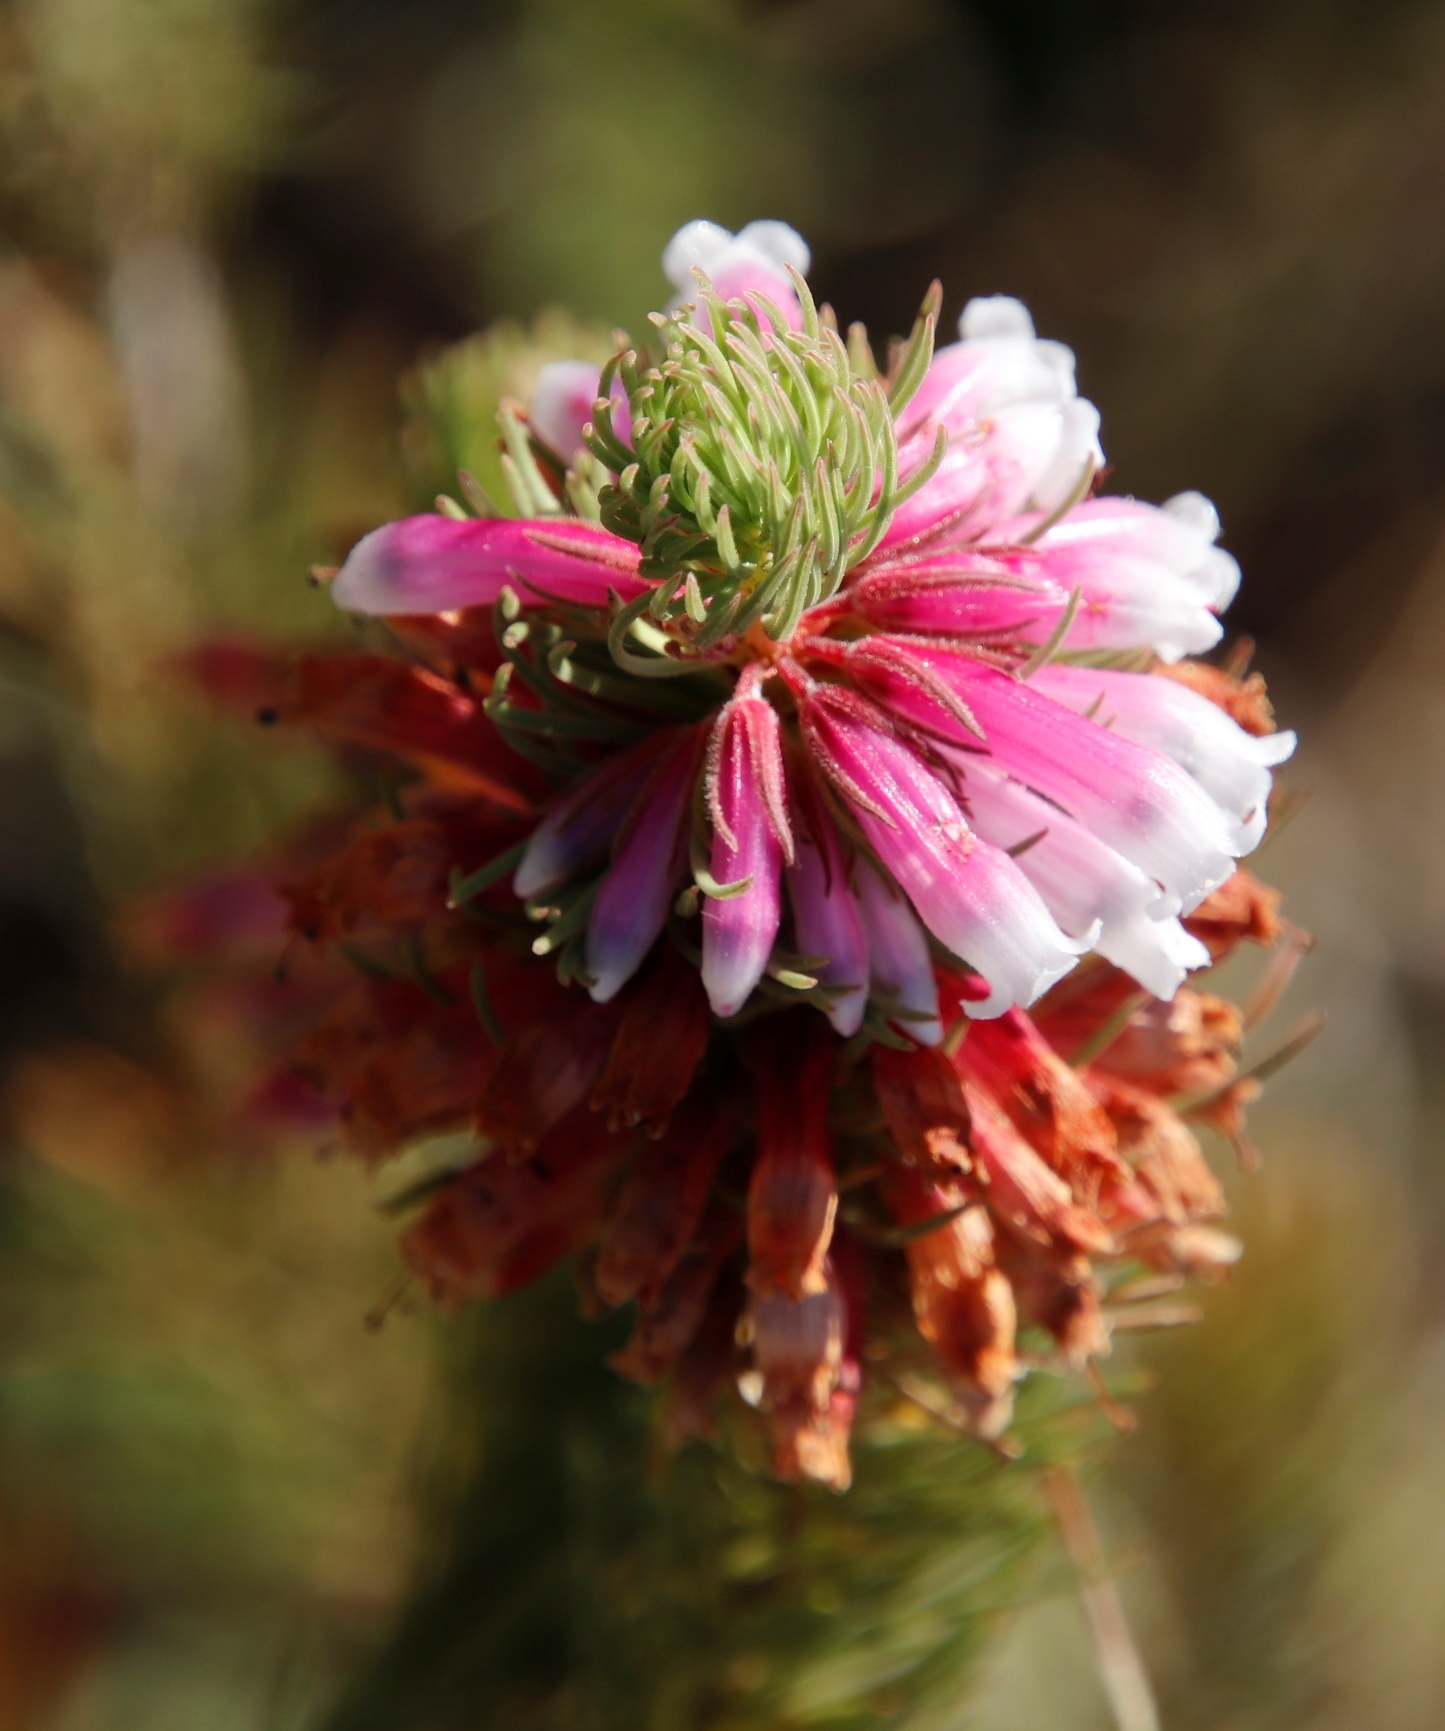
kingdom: Plantae
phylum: Tracheophyta
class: Magnoliopsida
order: Ericales
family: Ericaceae
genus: Erica
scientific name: Erica viscaria
